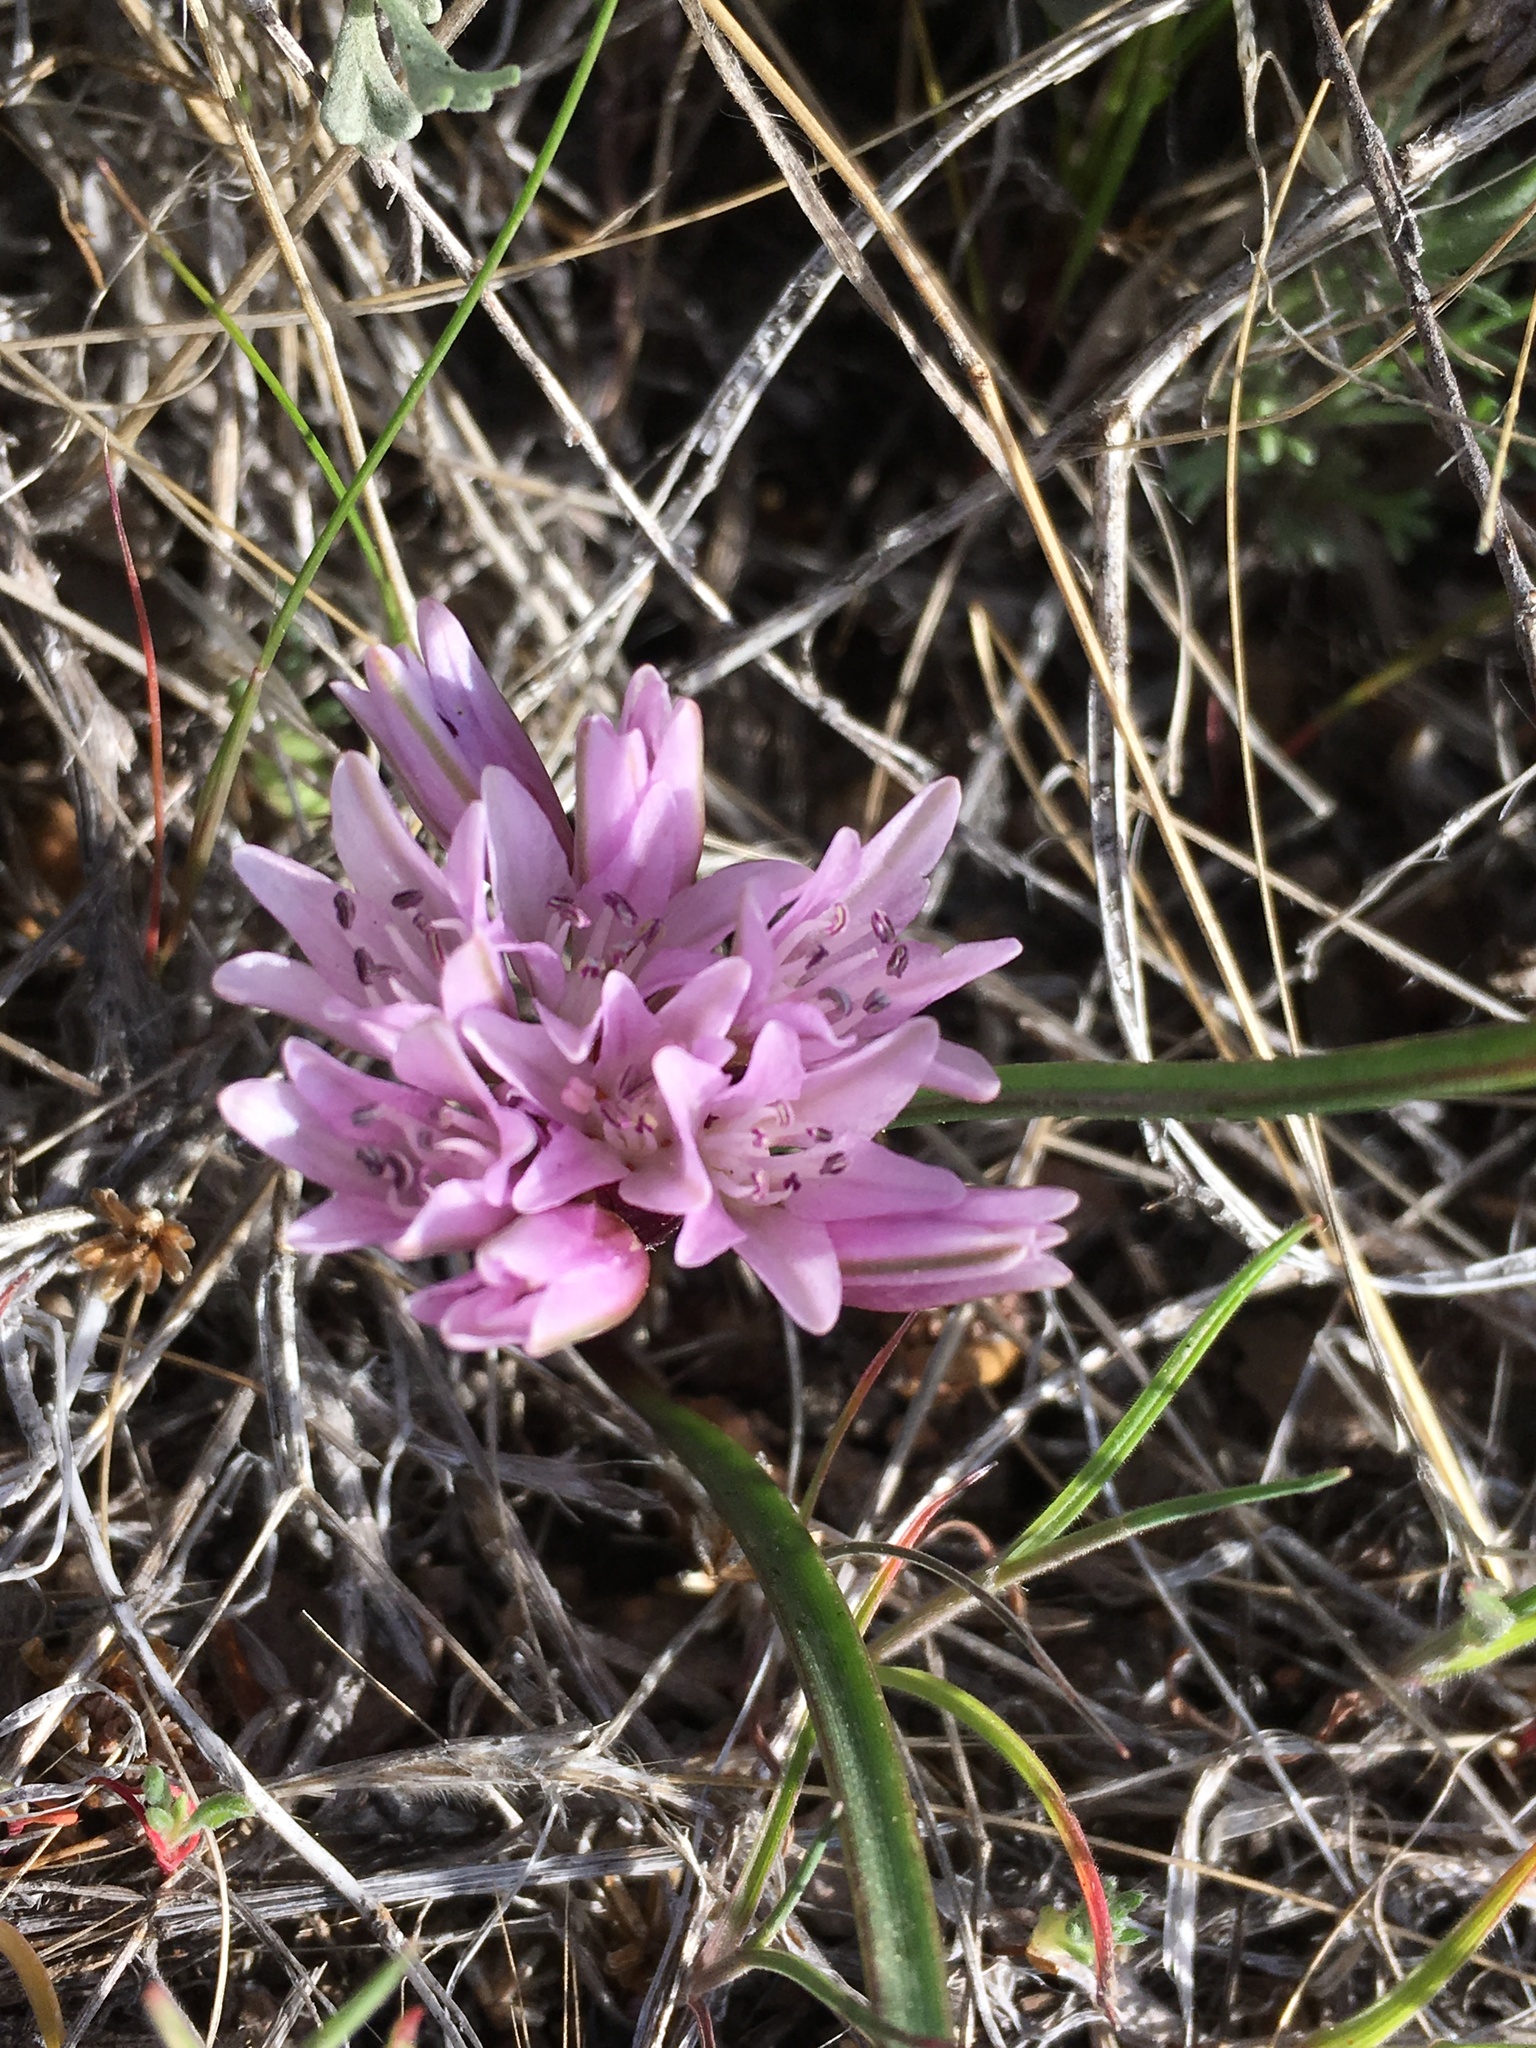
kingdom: Plantae
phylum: Tracheophyta
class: Liliopsida
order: Asparagales
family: Amaryllidaceae
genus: Allium
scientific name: Allium parvum
